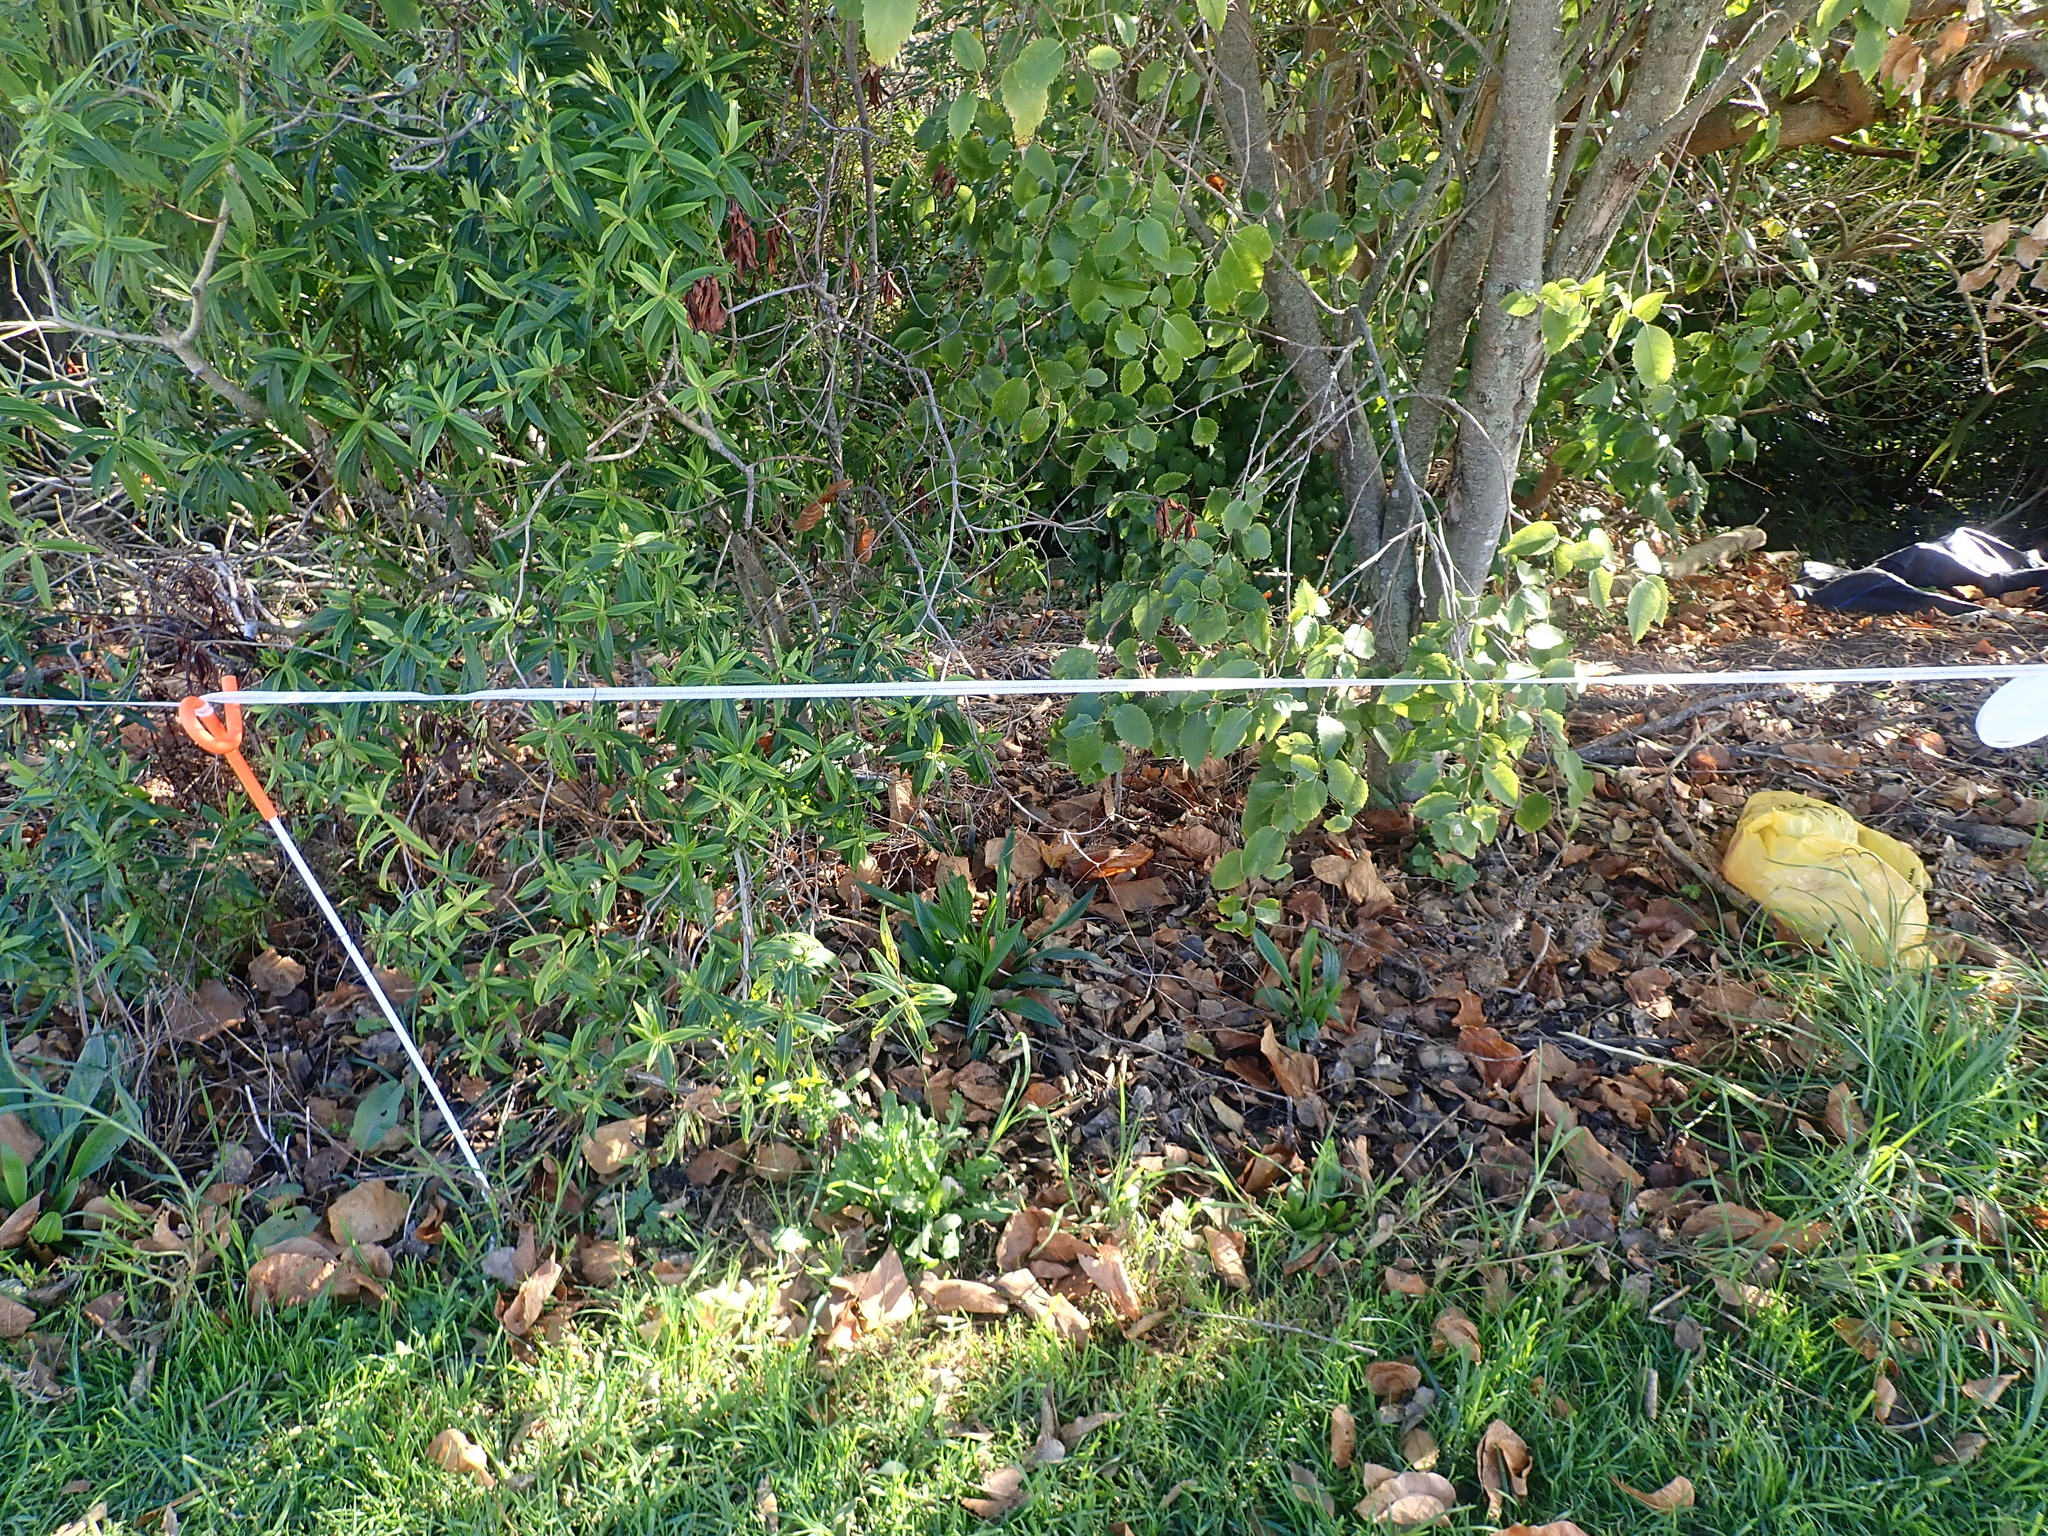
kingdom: Plantae
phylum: Tracheophyta
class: Magnoliopsida
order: Lamiales
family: Plantaginaceae
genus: Plantago
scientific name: Plantago lanceolata
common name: Ribwort plantain
